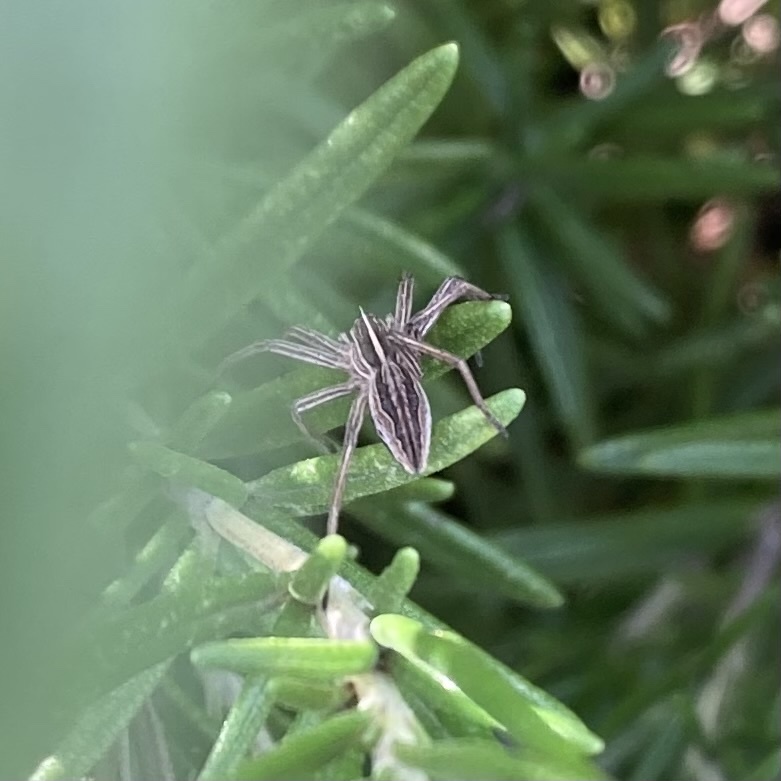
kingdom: Animalia
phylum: Arthropoda
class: Arachnida
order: Araneae
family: Pisauridae
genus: Pisaura
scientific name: Pisaura mirabilis
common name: Tent spider
